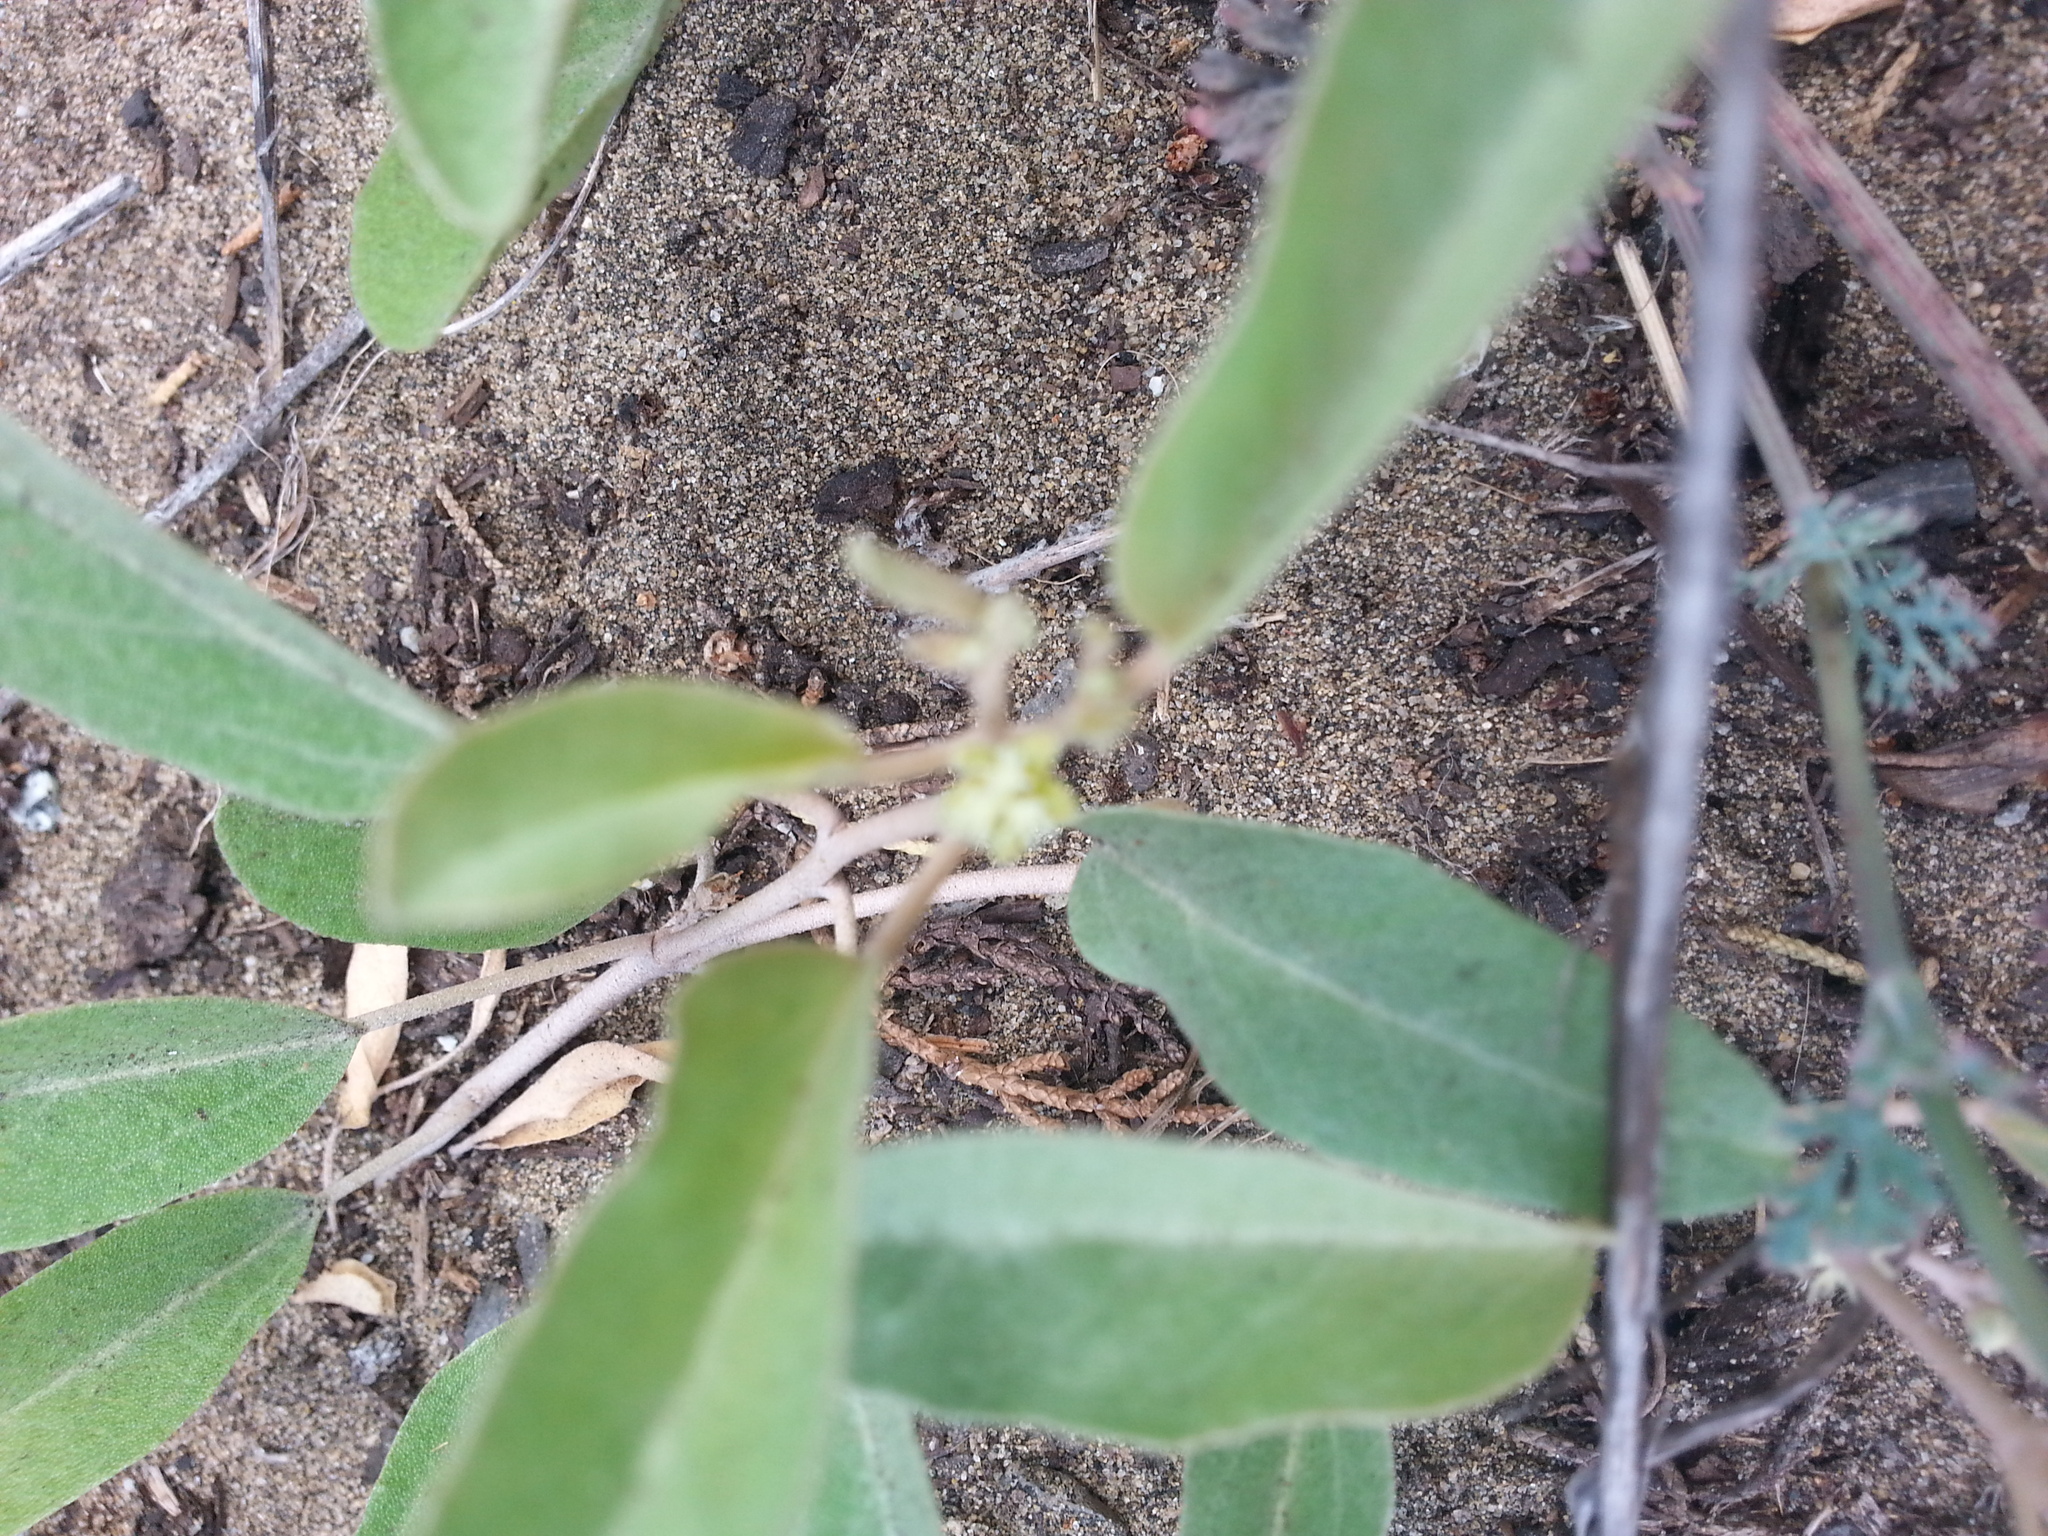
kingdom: Plantae
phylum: Tracheophyta
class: Magnoliopsida
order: Malpighiales
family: Euphorbiaceae
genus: Croton
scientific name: Croton californicus
